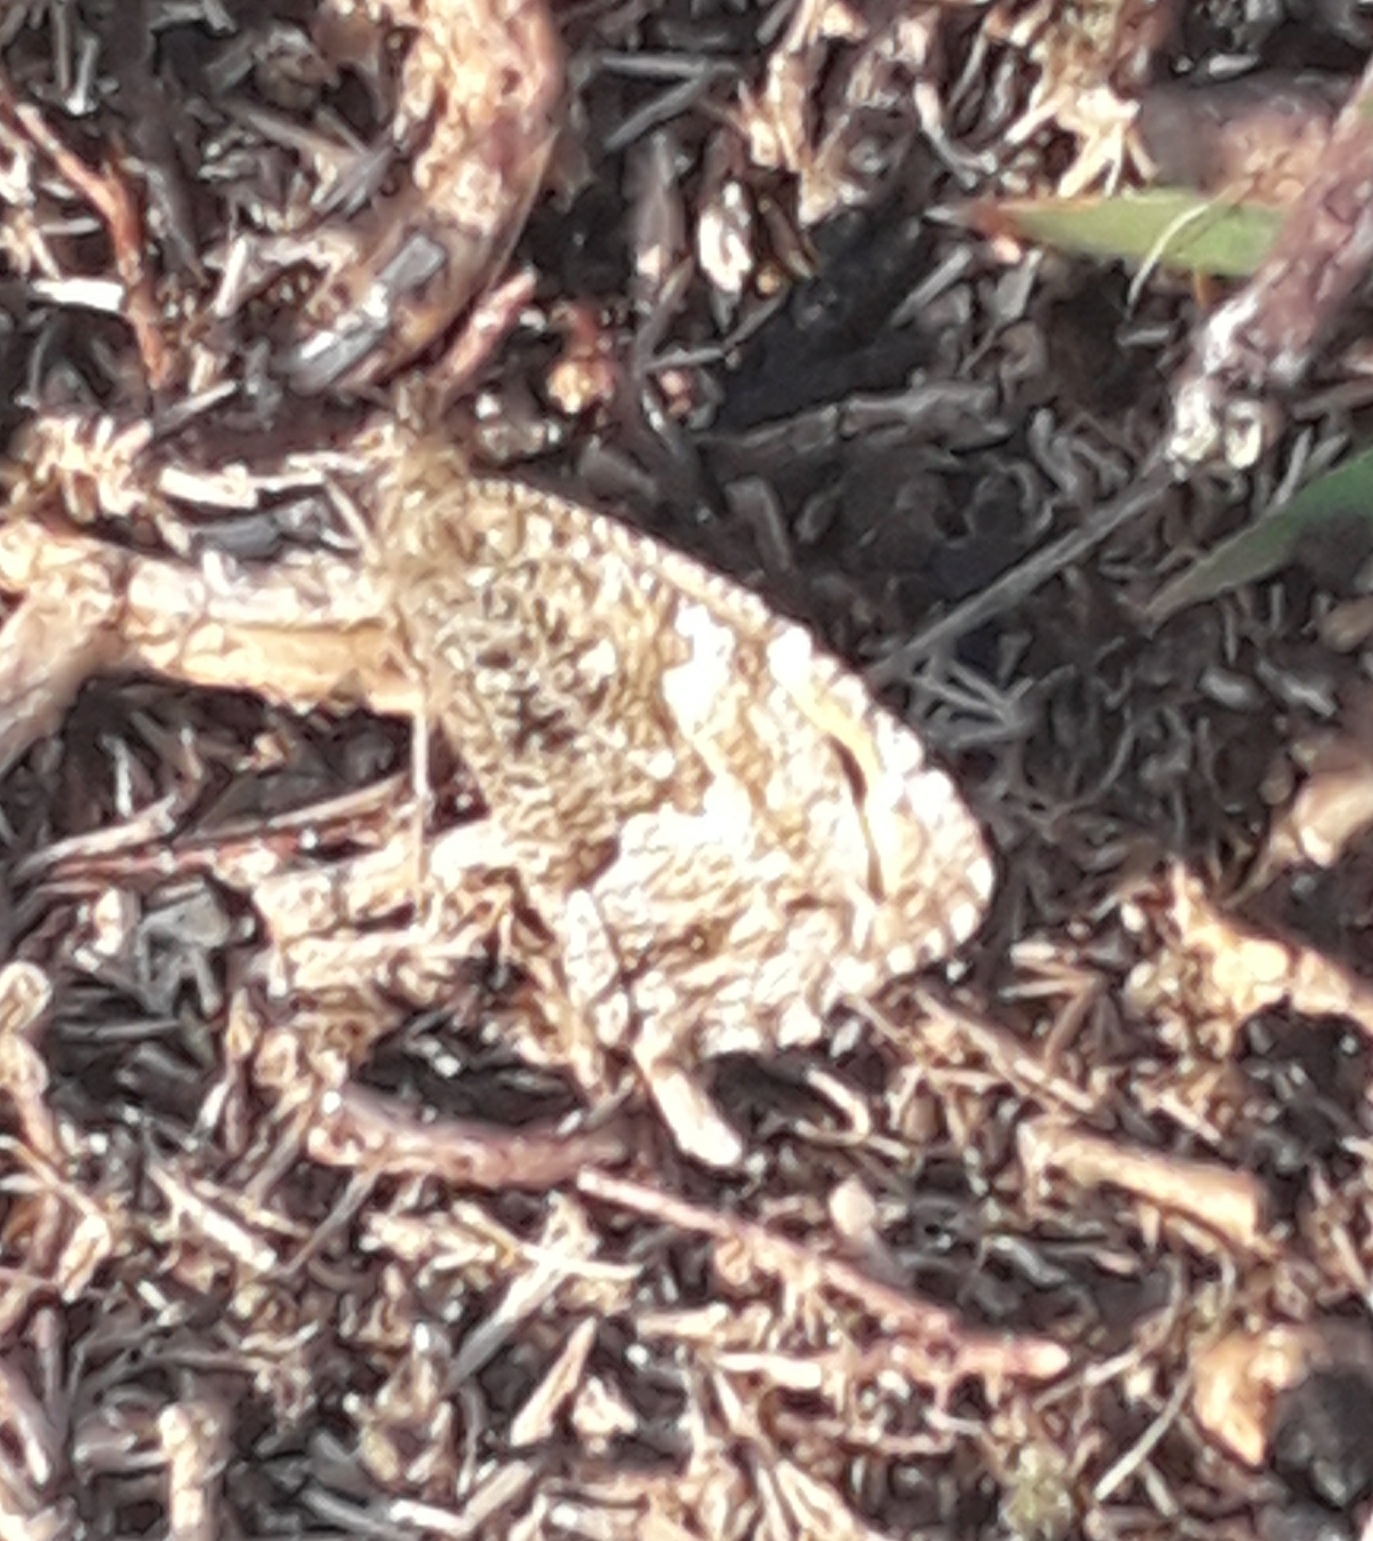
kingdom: Animalia
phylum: Arthropoda
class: Insecta
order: Lepidoptera
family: Nymphalidae
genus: Hipparchia
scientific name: Hipparchia semele
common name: Grayling
